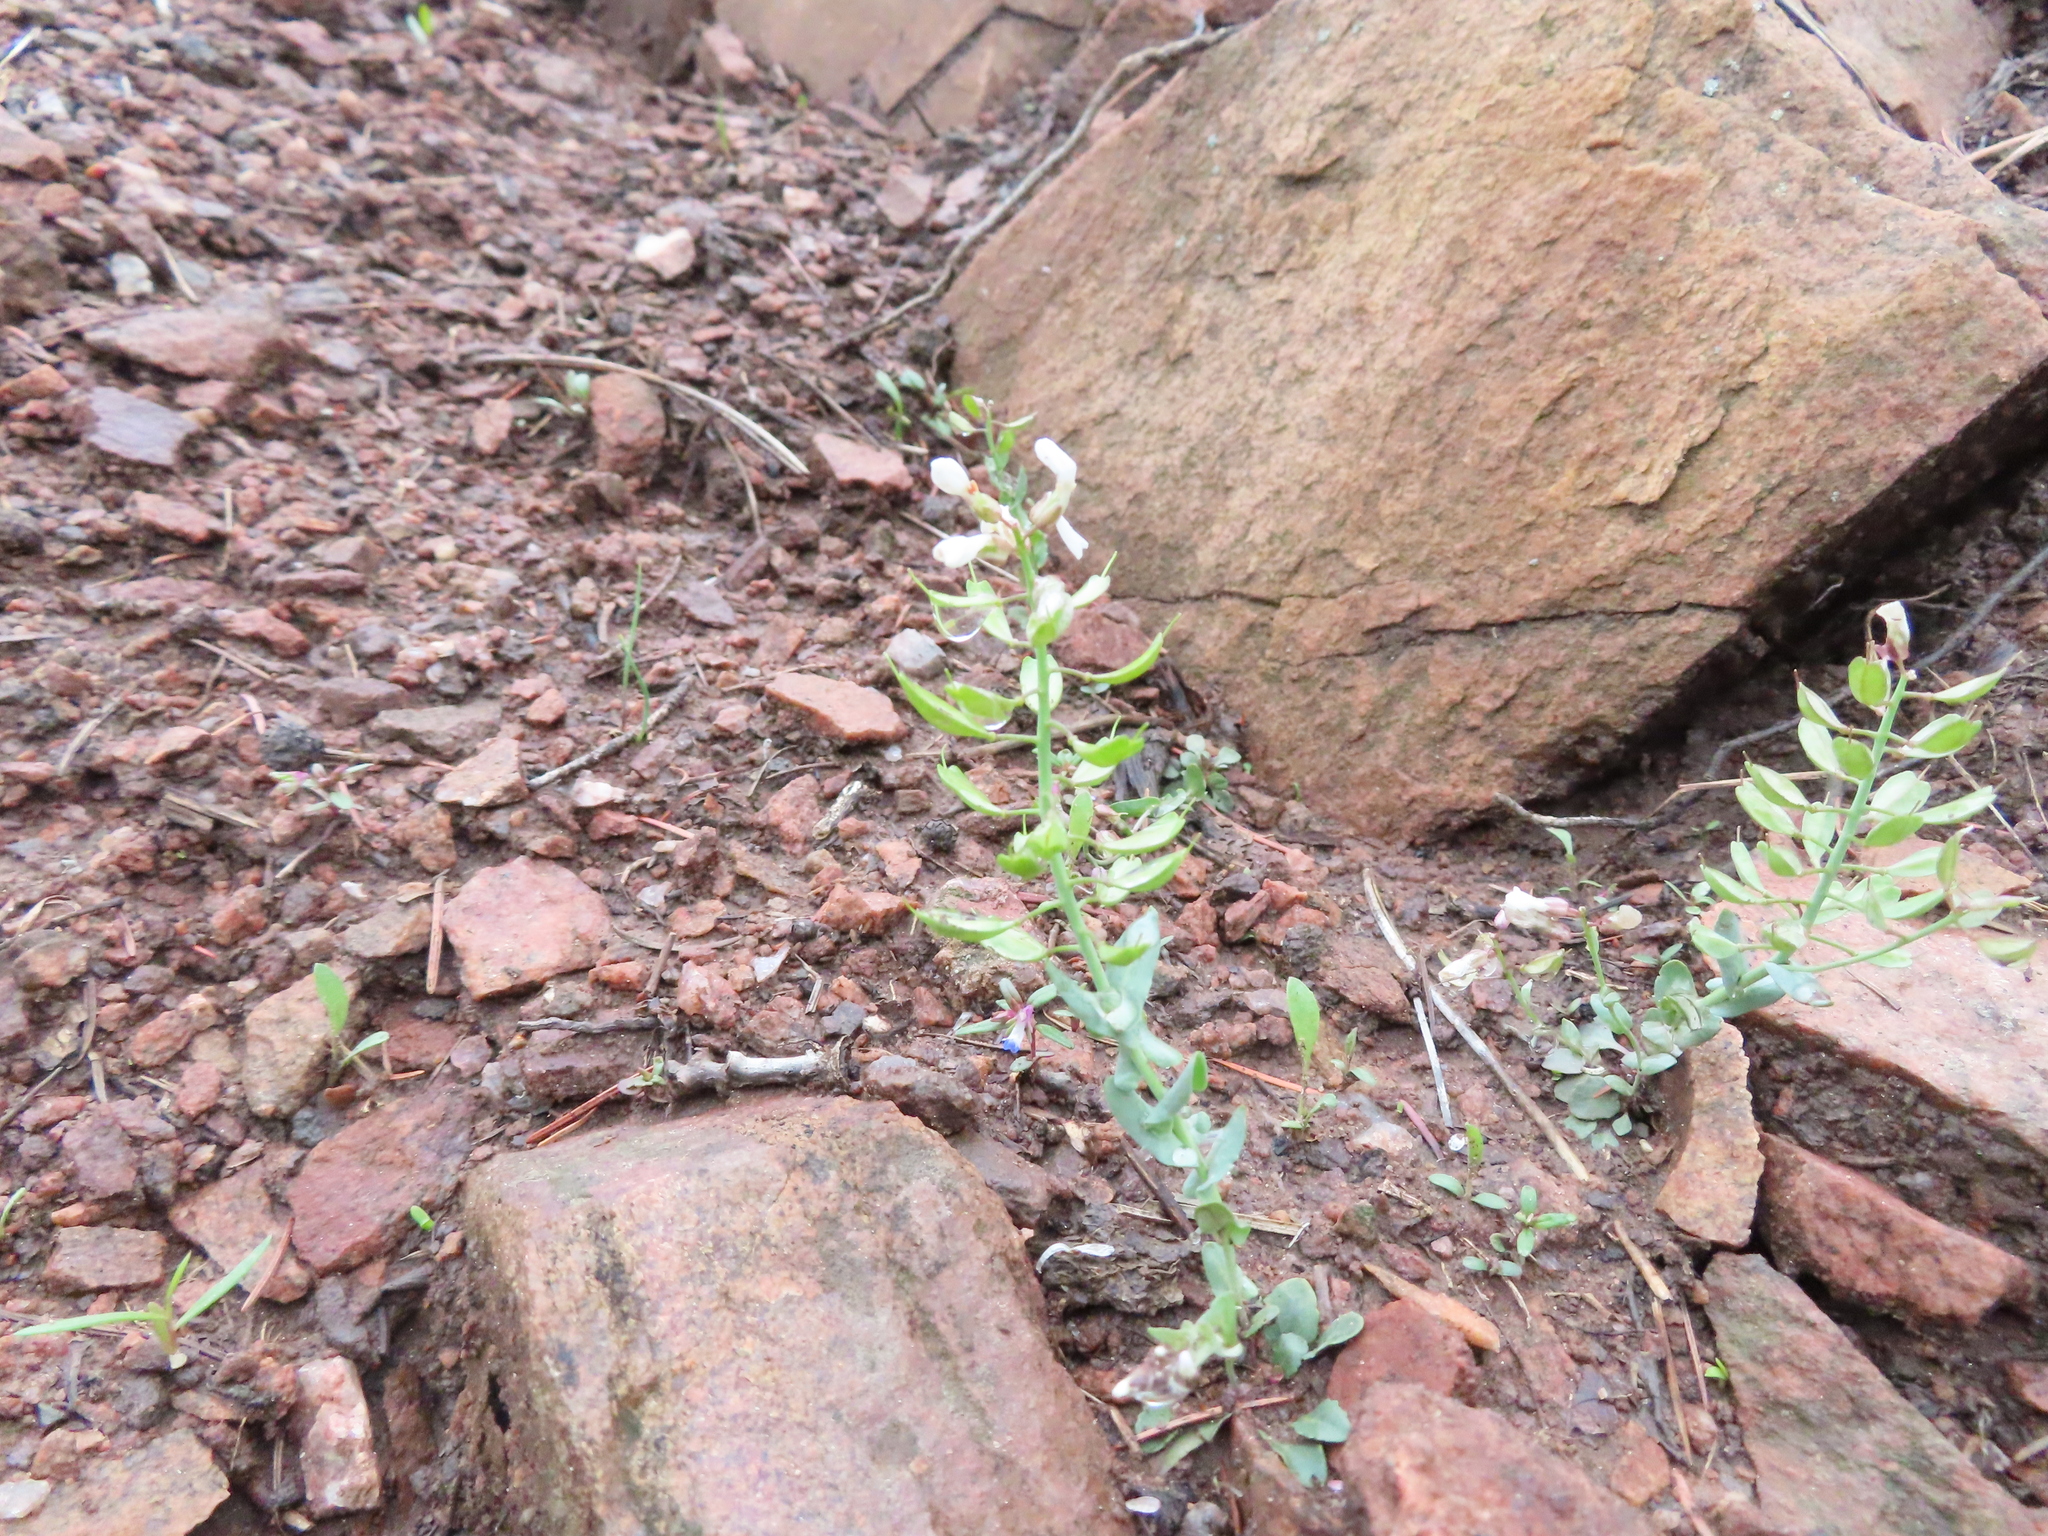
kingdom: Plantae
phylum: Tracheophyta
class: Magnoliopsida
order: Brassicales
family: Brassicaceae
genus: Noccaea
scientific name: Noccaea fendleri
